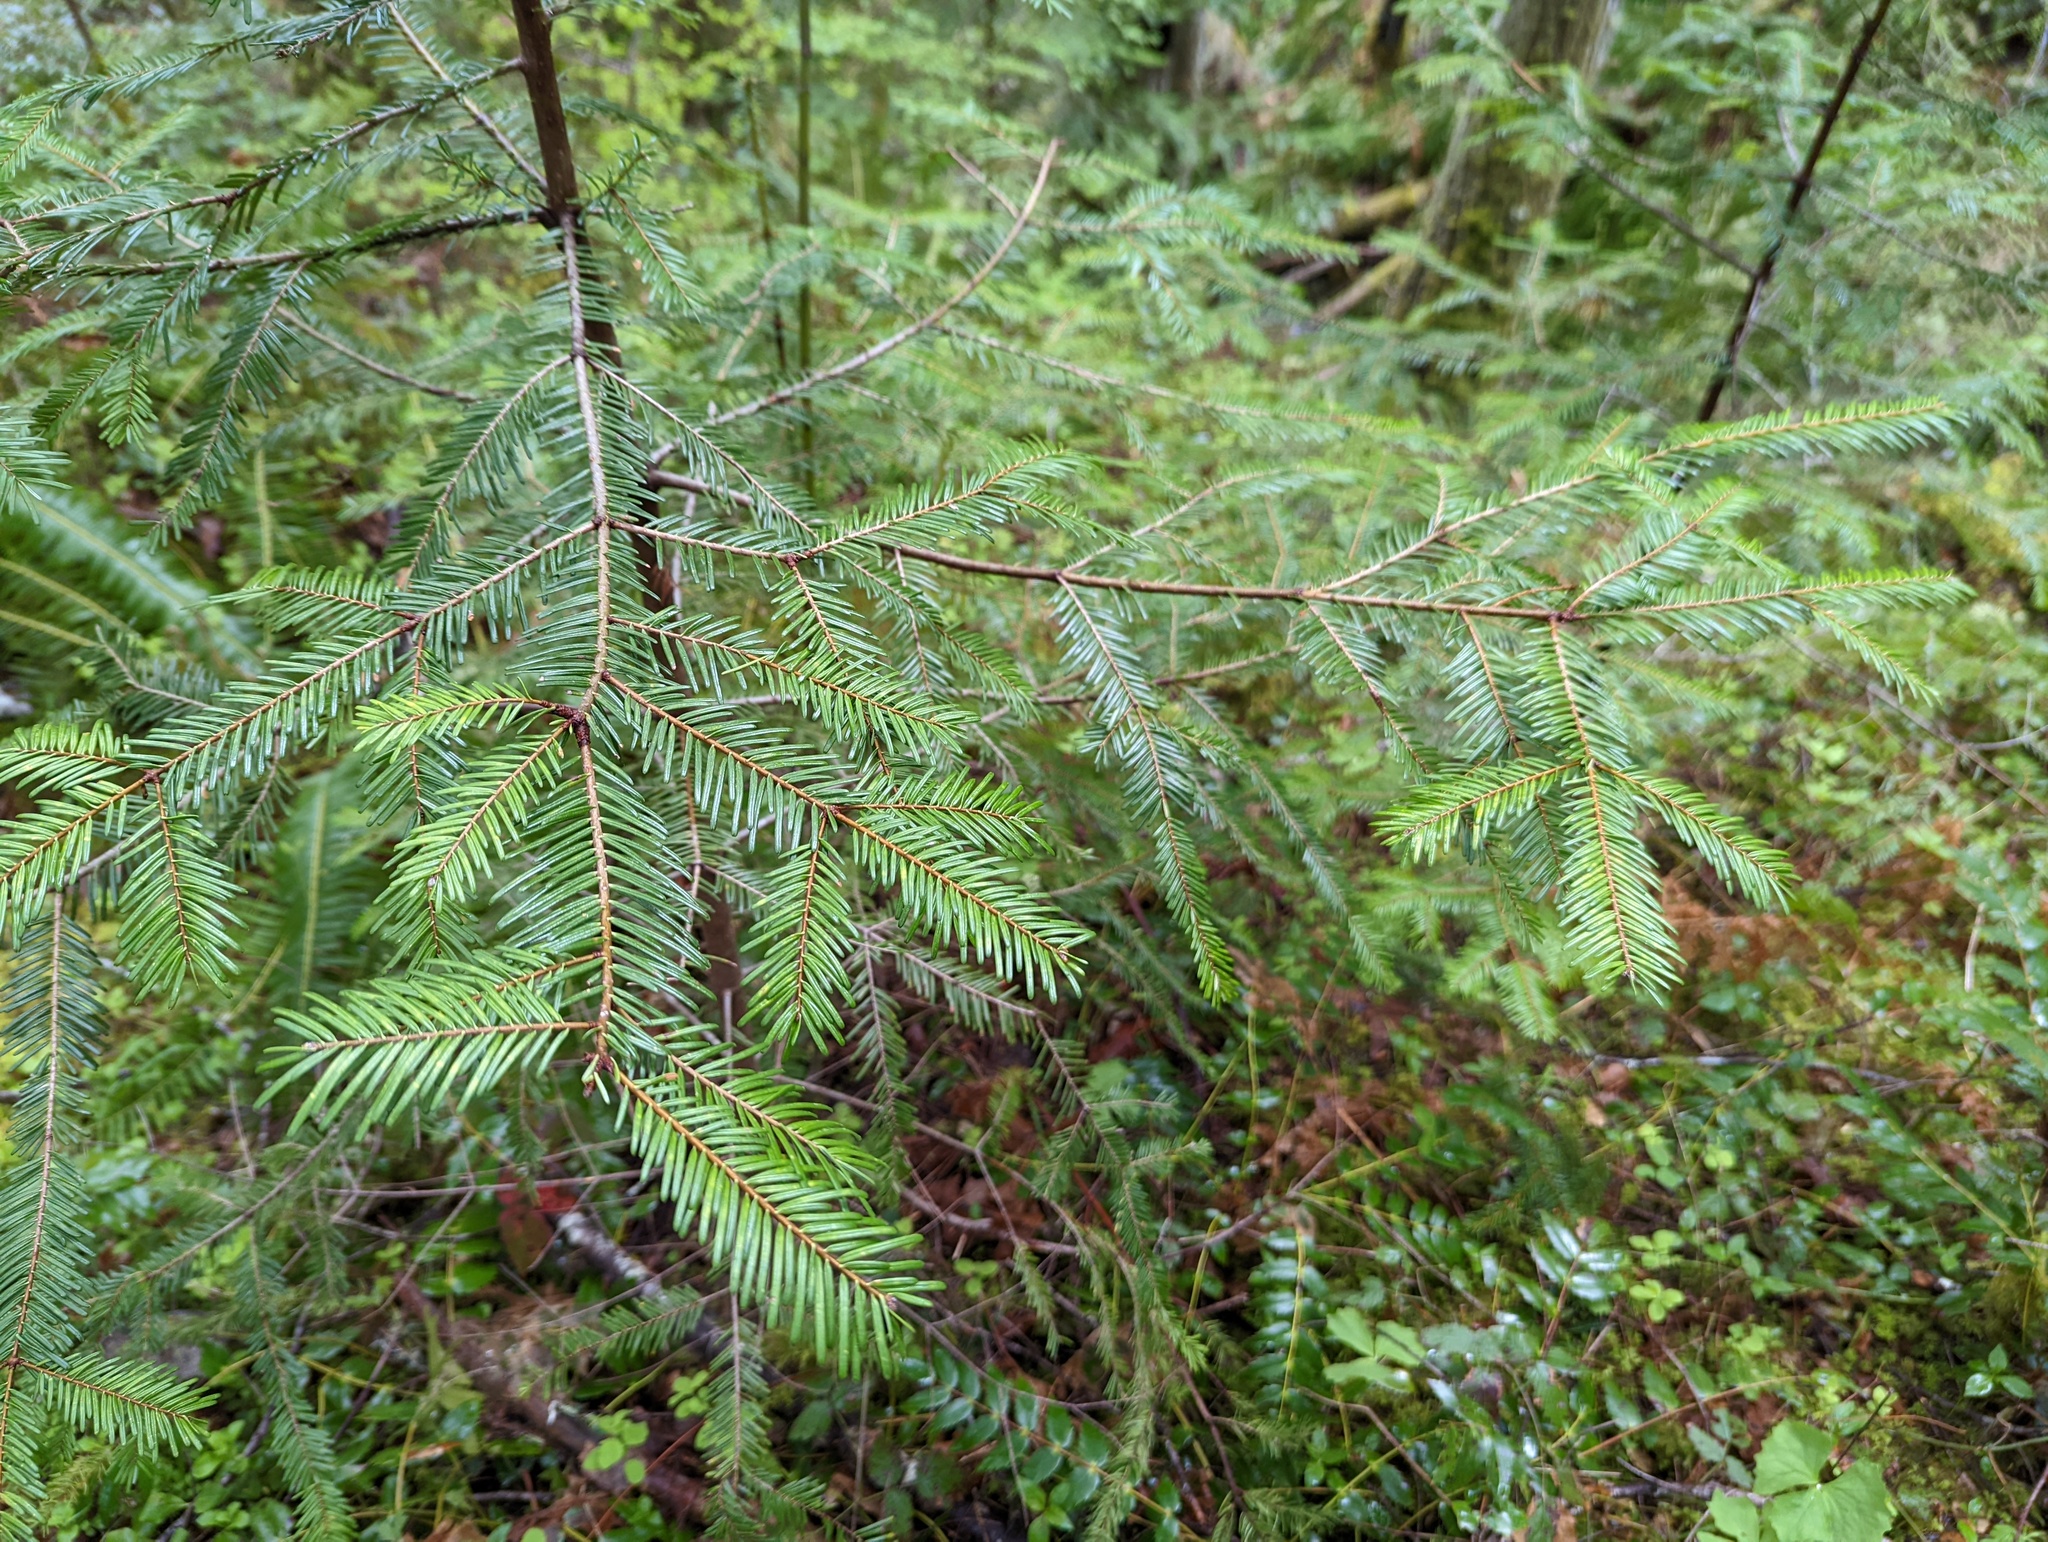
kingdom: Plantae
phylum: Tracheophyta
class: Pinopsida
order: Pinales
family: Pinaceae
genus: Abies
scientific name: Abies grandis
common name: Giant fir
